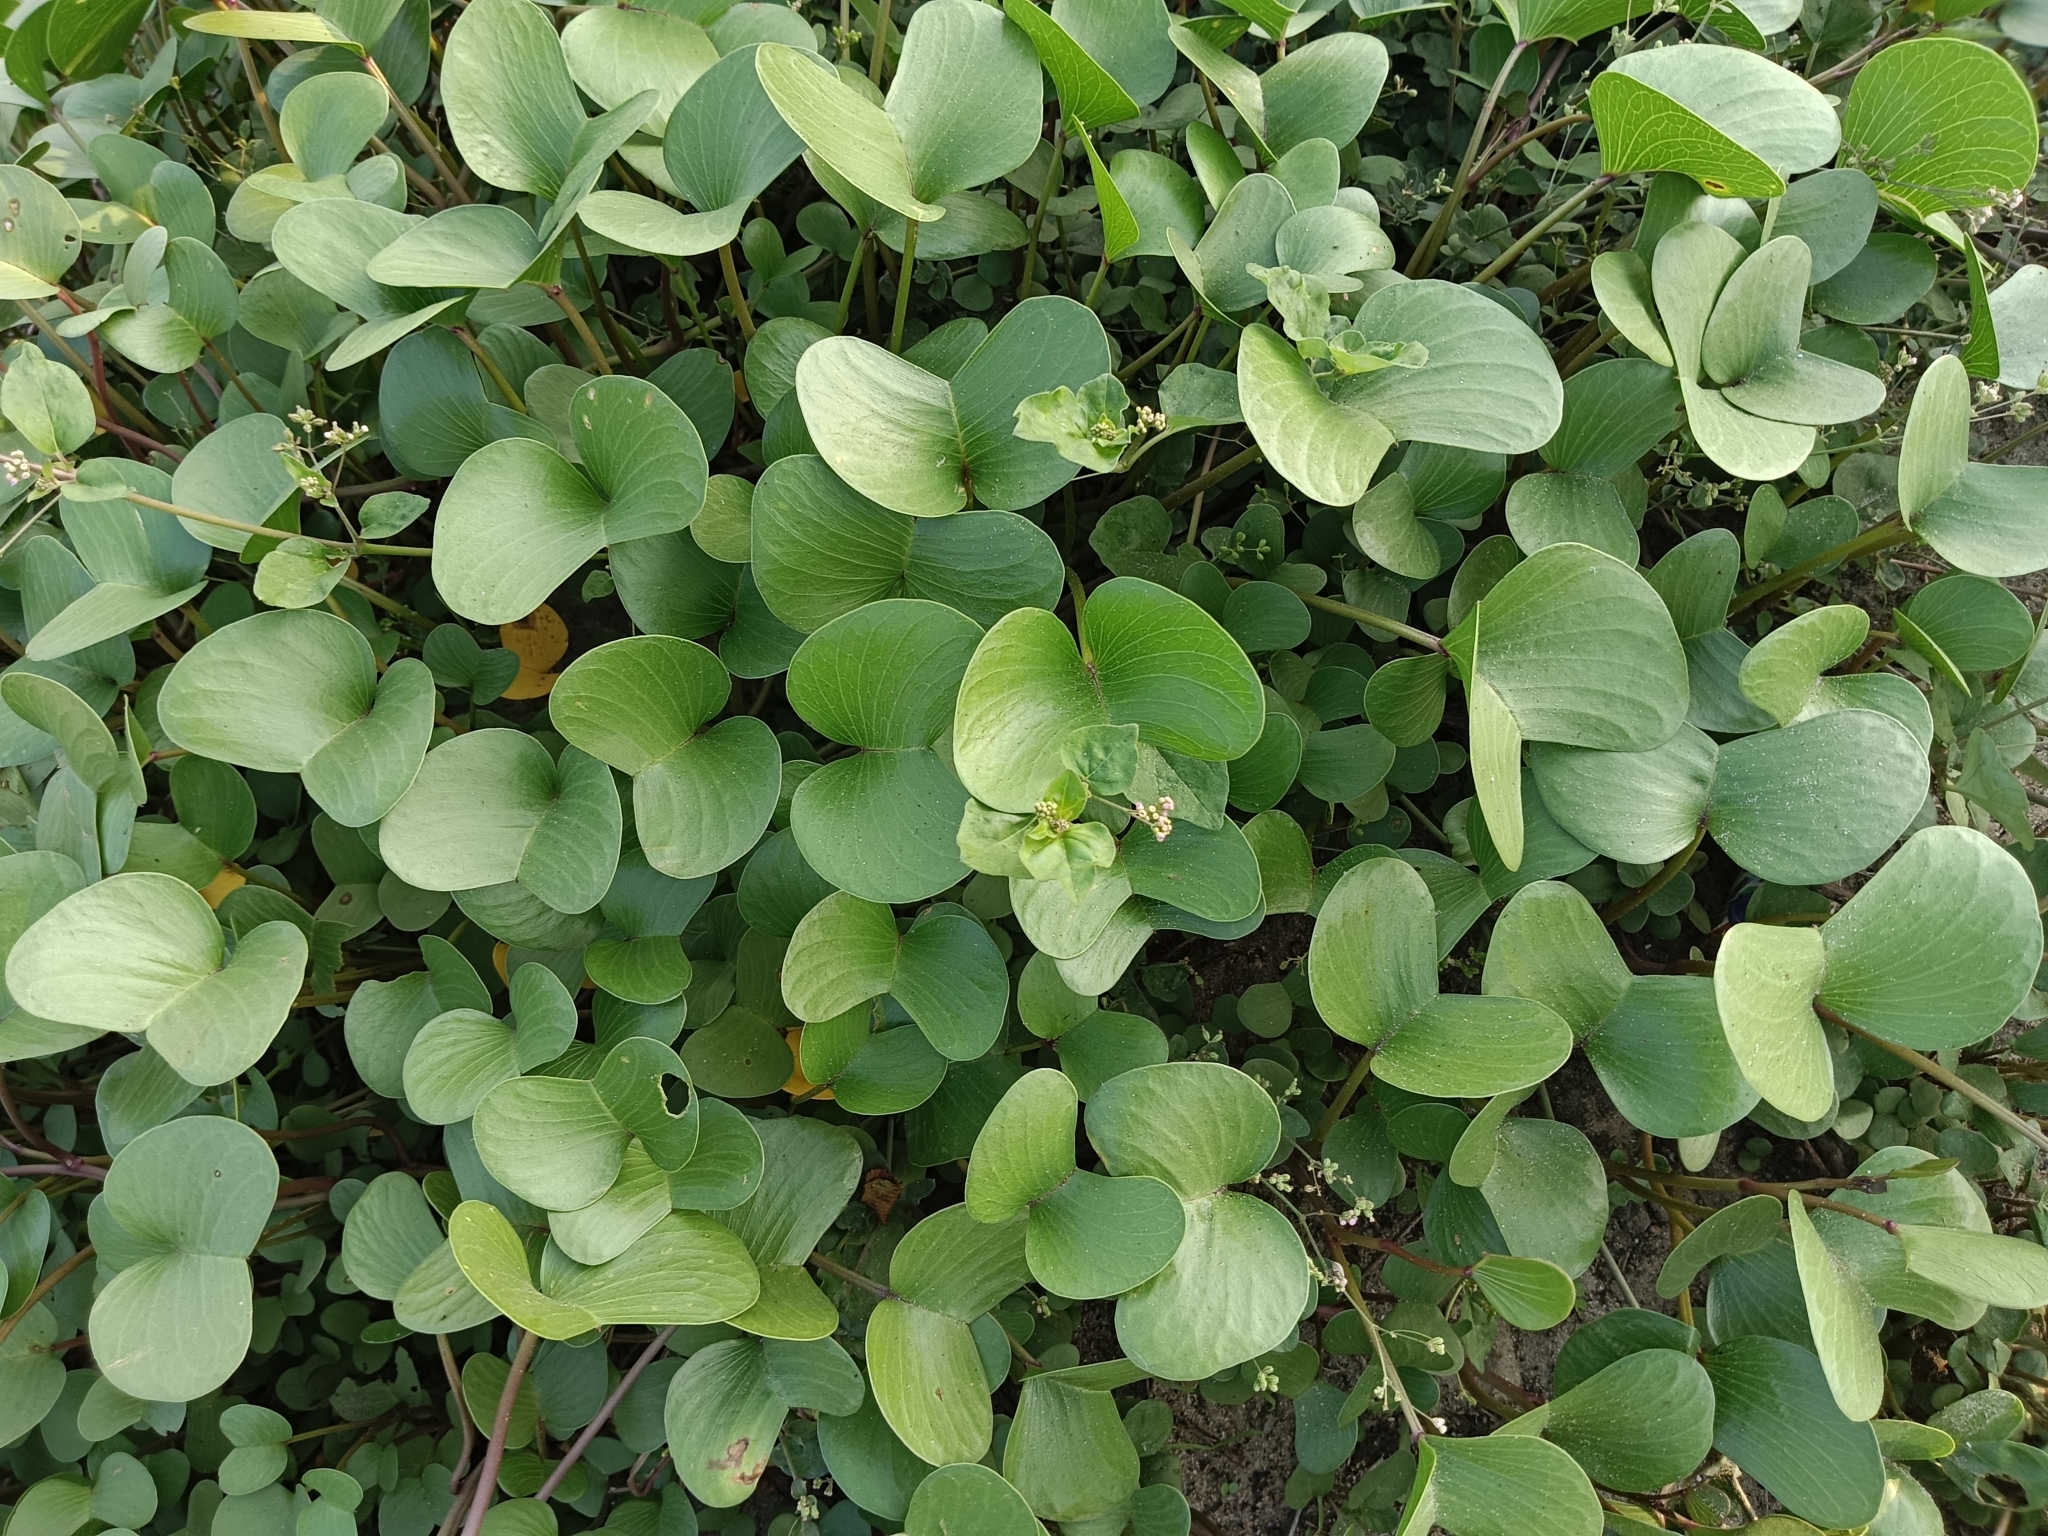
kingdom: Plantae
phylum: Tracheophyta
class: Magnoliopsida
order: Solanales
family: Convolvulaceae
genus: Ipomoea
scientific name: Ipomoea pes-caprae
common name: Beach morning glory
